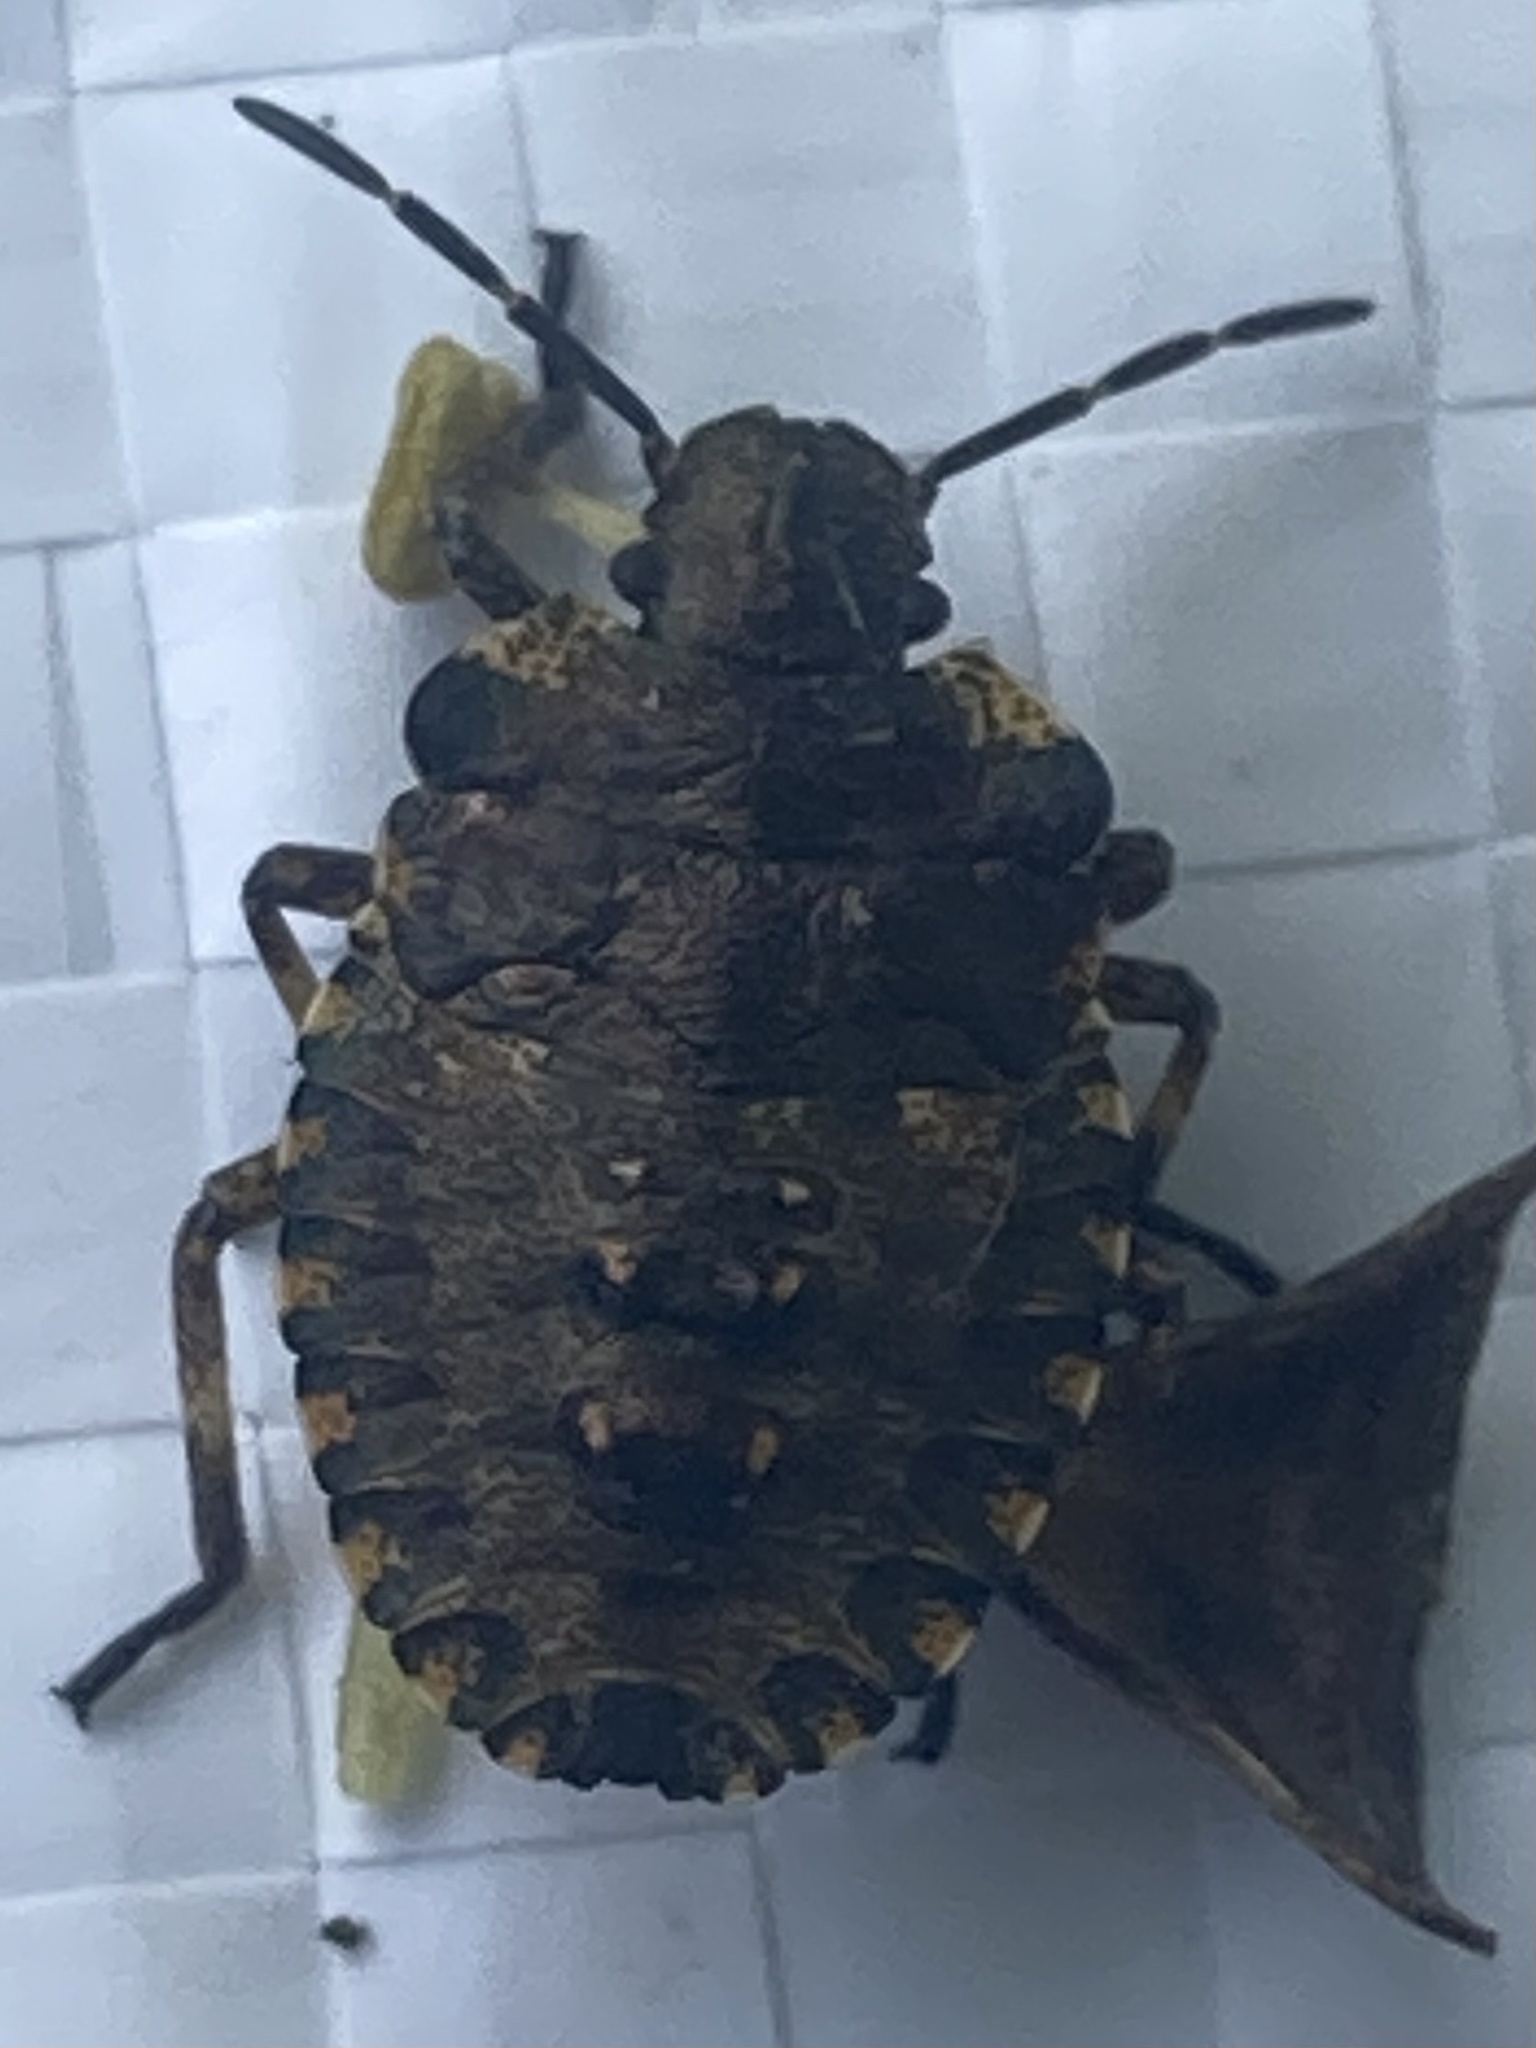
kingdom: Animalia
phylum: Arthropoda
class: Insecta
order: Hemiptera
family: Pentatomidae
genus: Pentatoma
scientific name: Pentatoma rufipes
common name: Forest bug
